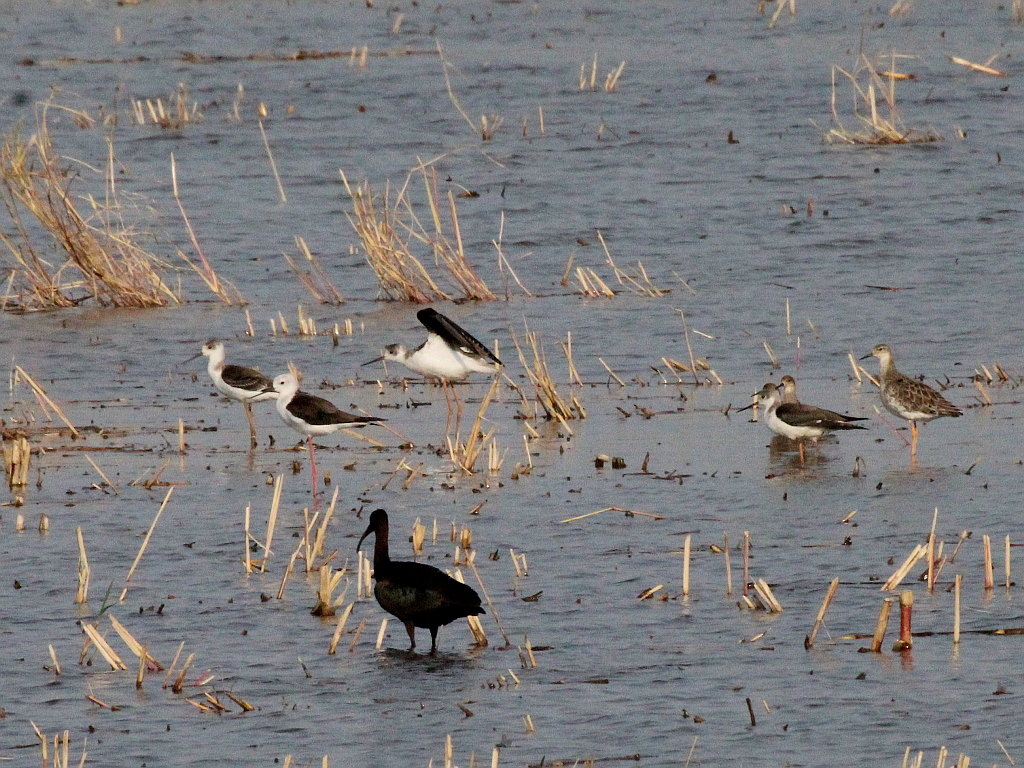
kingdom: Animalia
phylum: Chordata
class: Aves
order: Charadriiformes
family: Recurvirostridae
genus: Himantopus
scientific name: Himantopus himantopus
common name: Black-winged stilt
